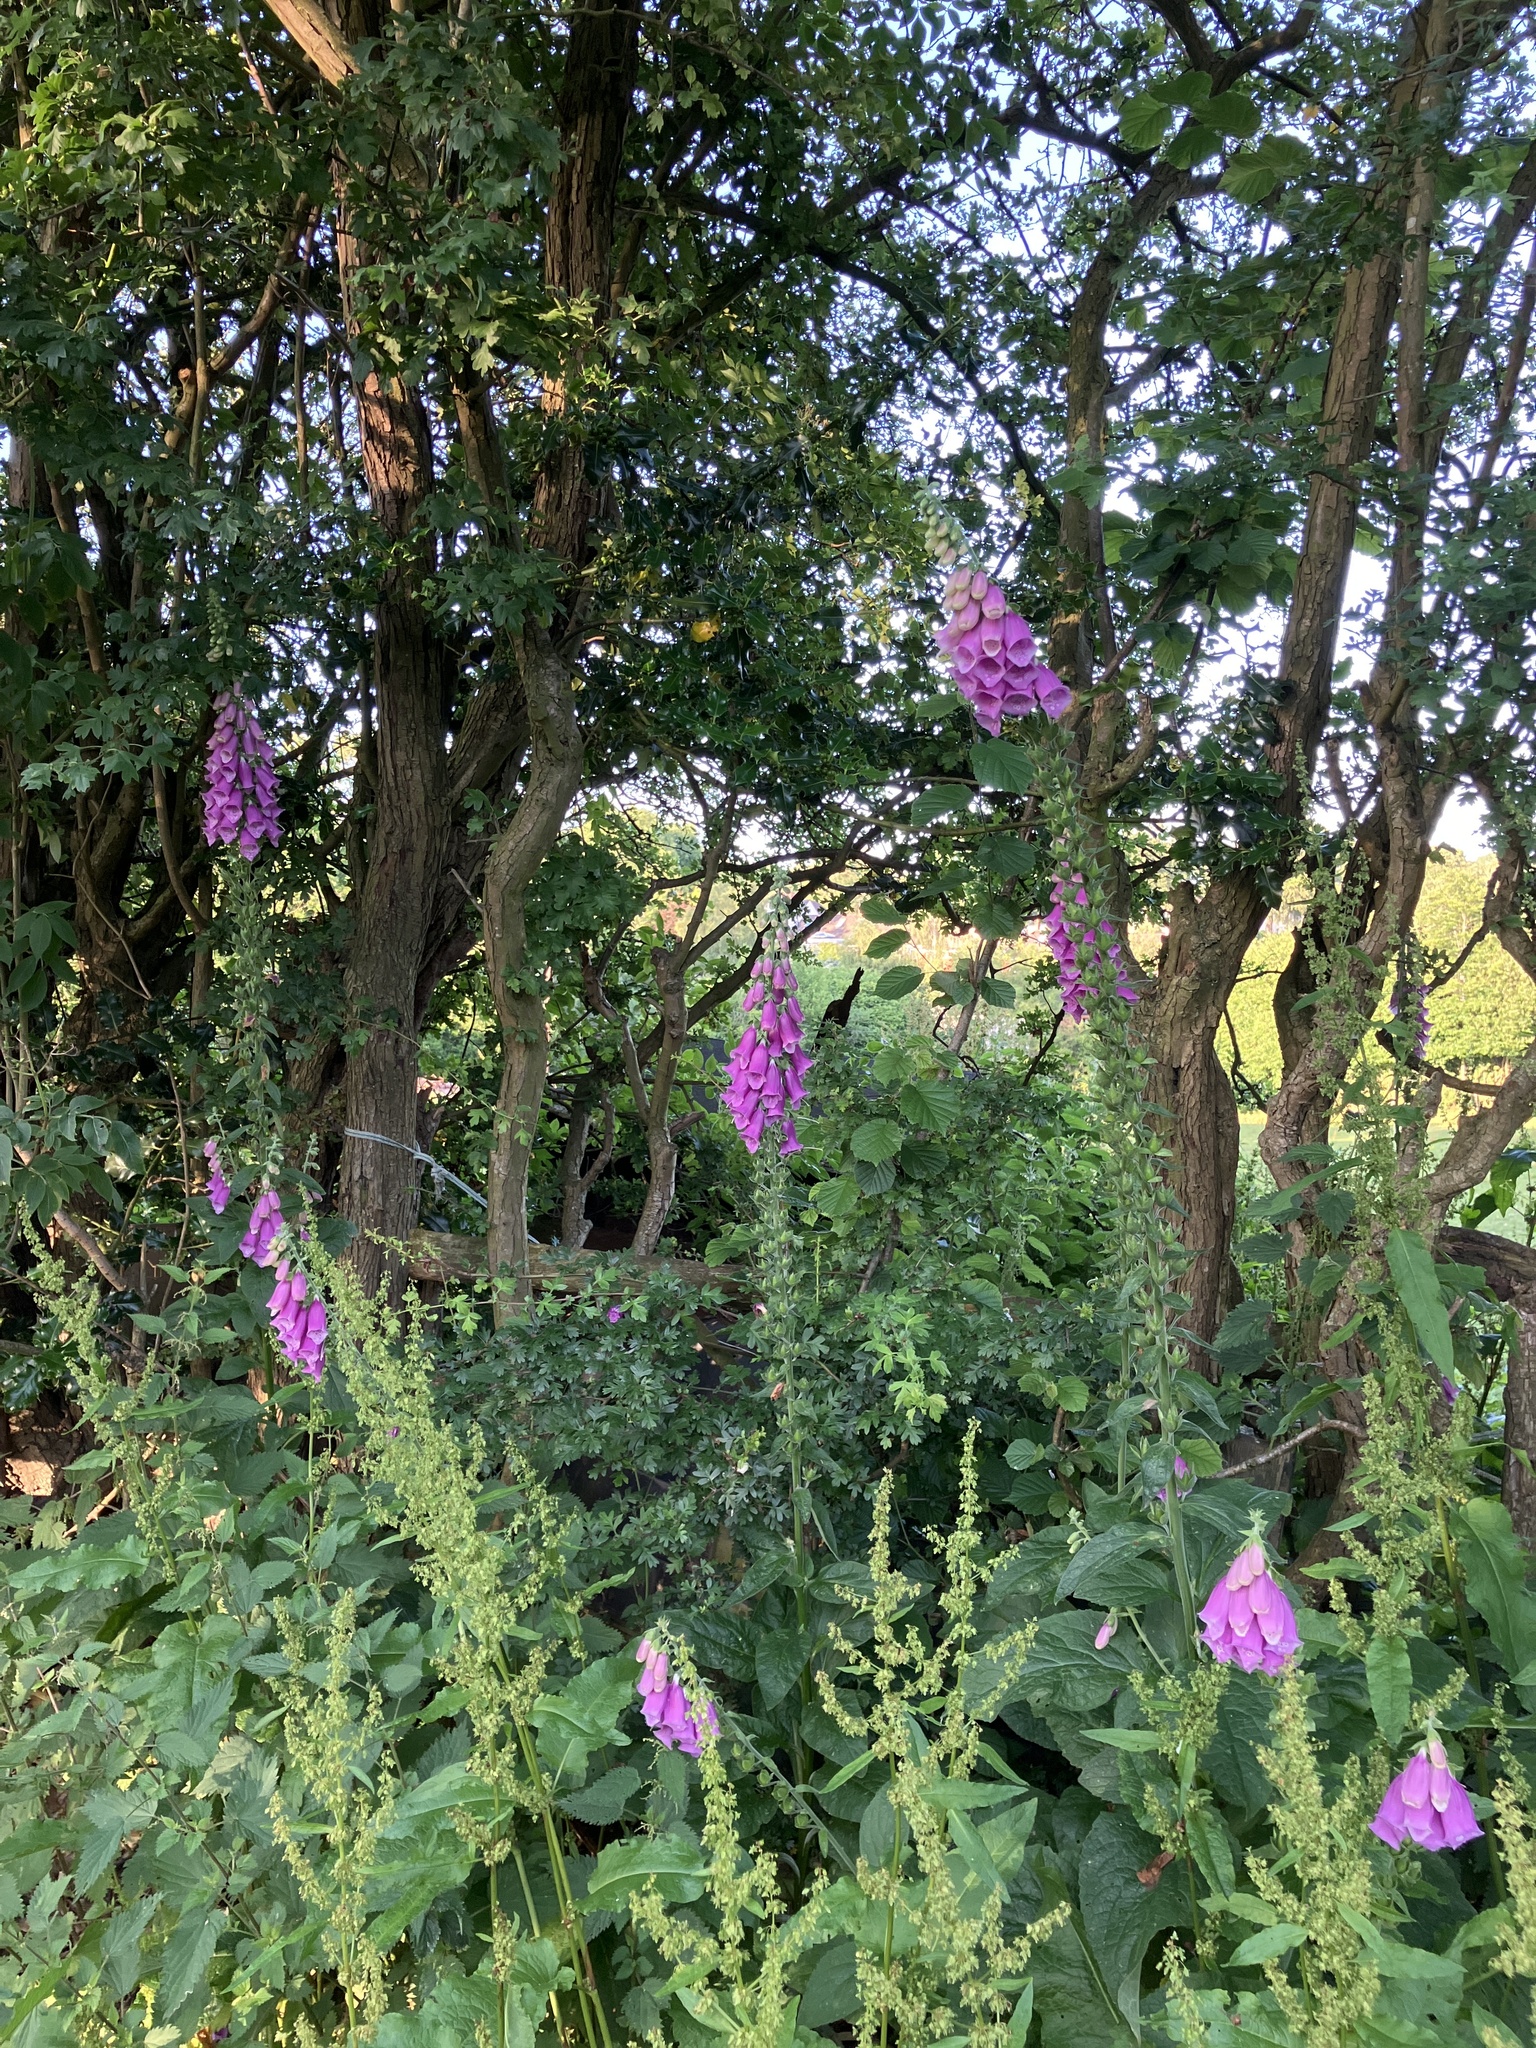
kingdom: Plantae
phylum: Tracheophyta
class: Magnoliopsida
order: Lamiales
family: Plantaginaceae
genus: Digitalis
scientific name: Digitalis purpurea
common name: Foxglove
